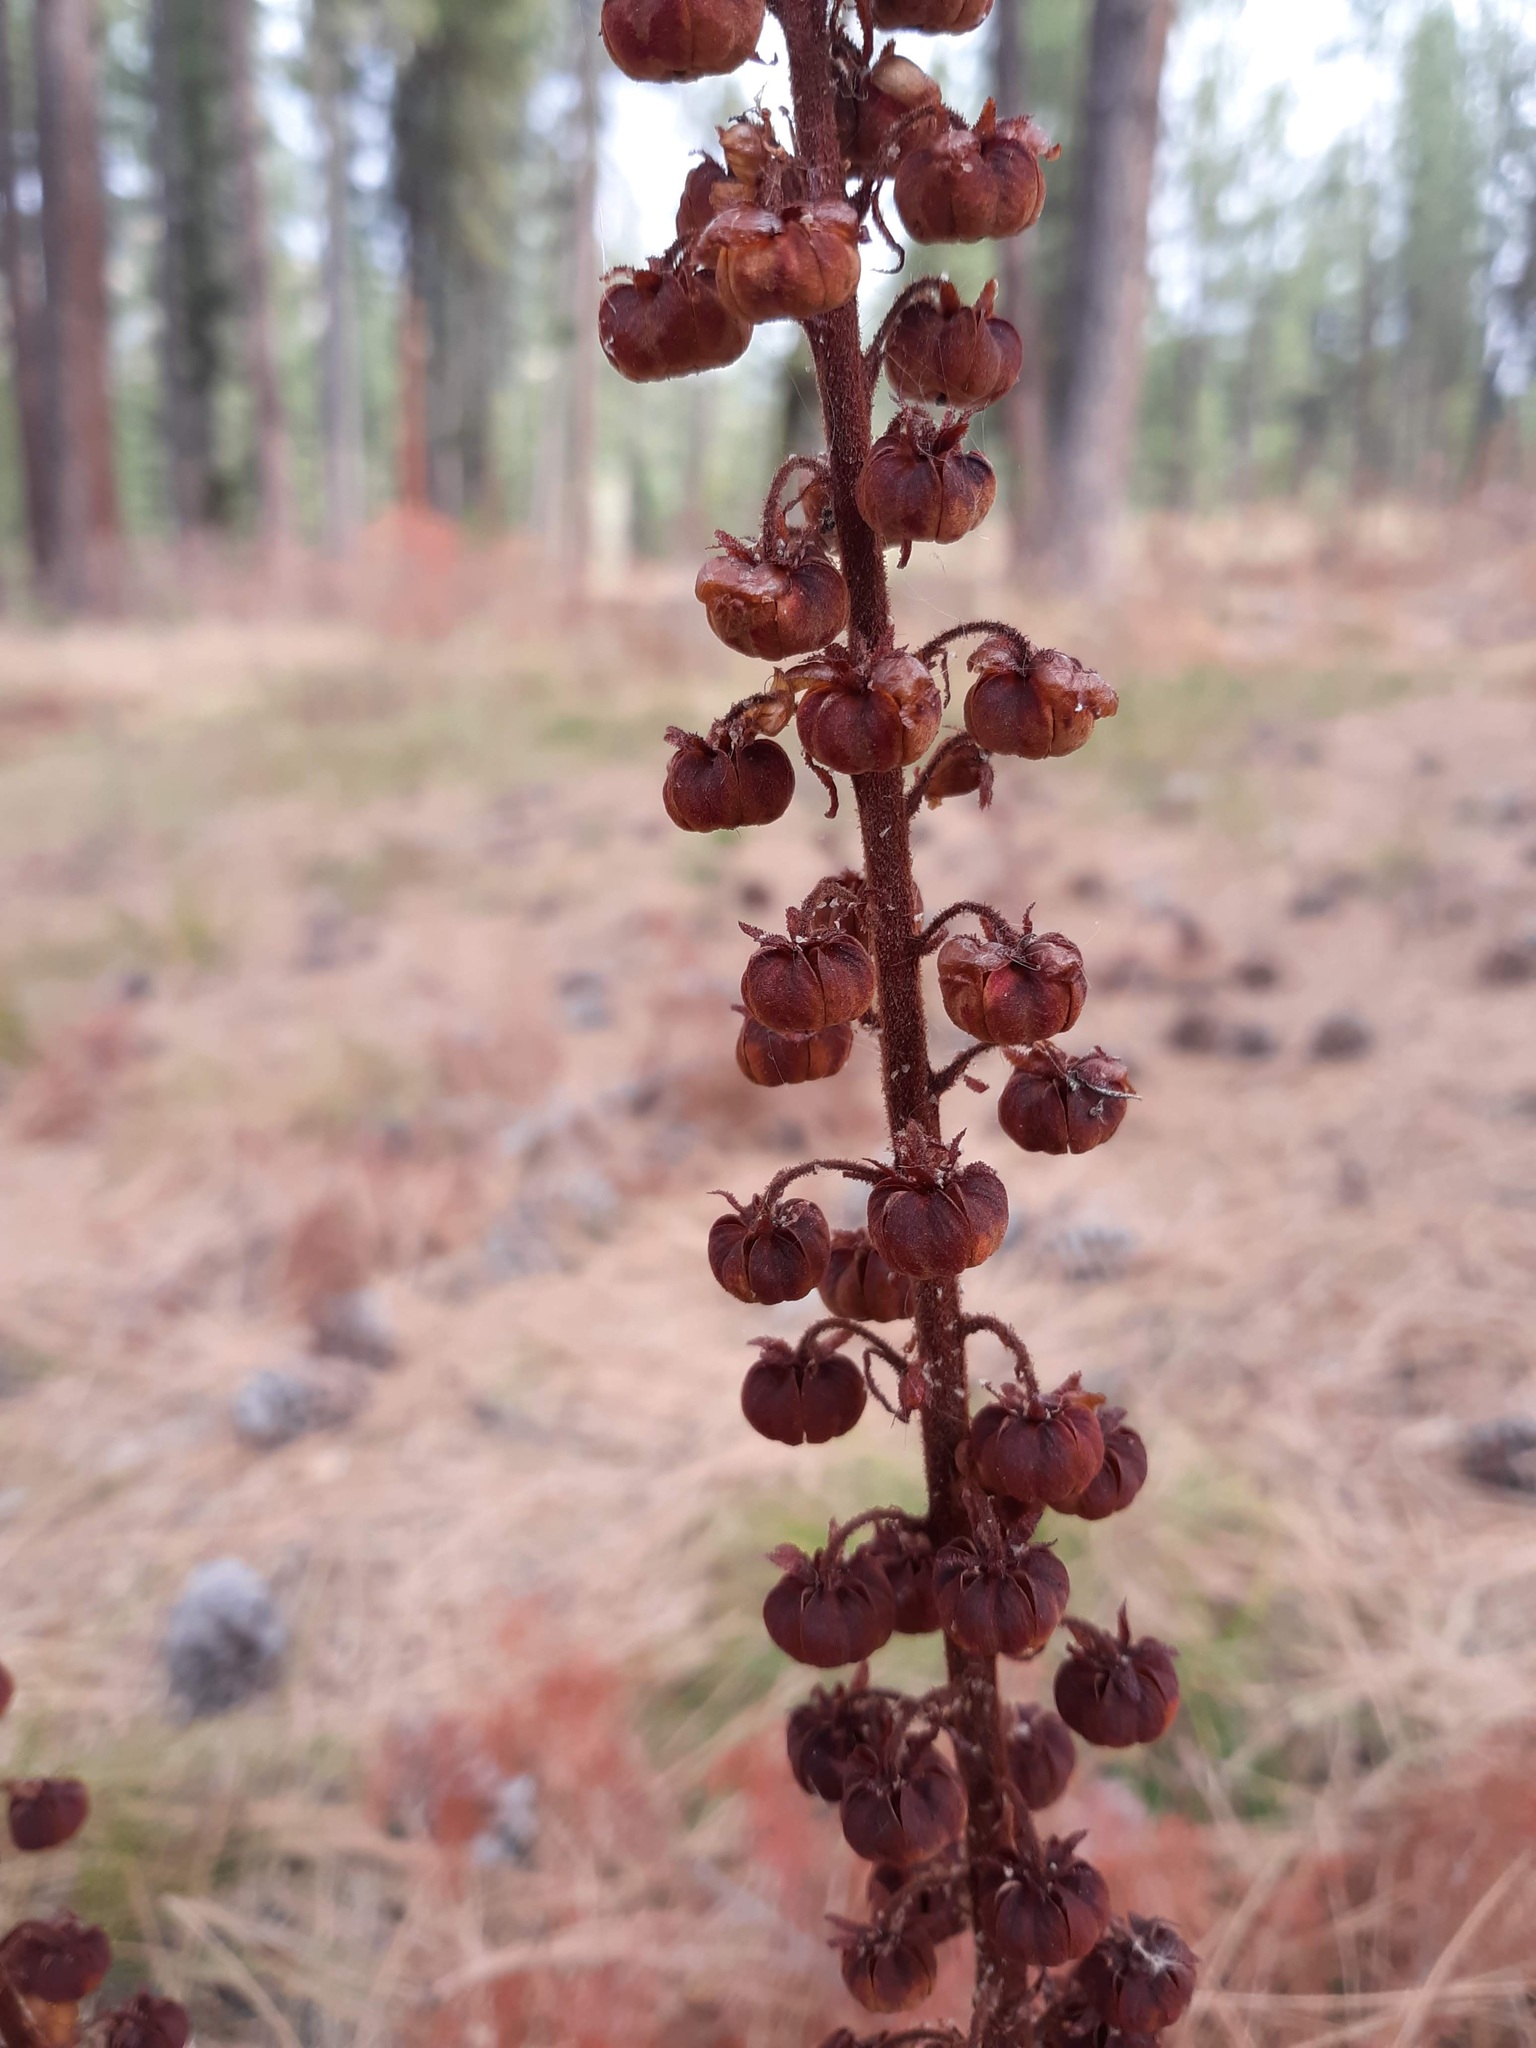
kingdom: Plantae
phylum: Tracheophyta
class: Magnoliopsida
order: Ericales
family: Ericaceae
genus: Pterospora
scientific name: Pterospora andromedea
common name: Giant bird's-nest
